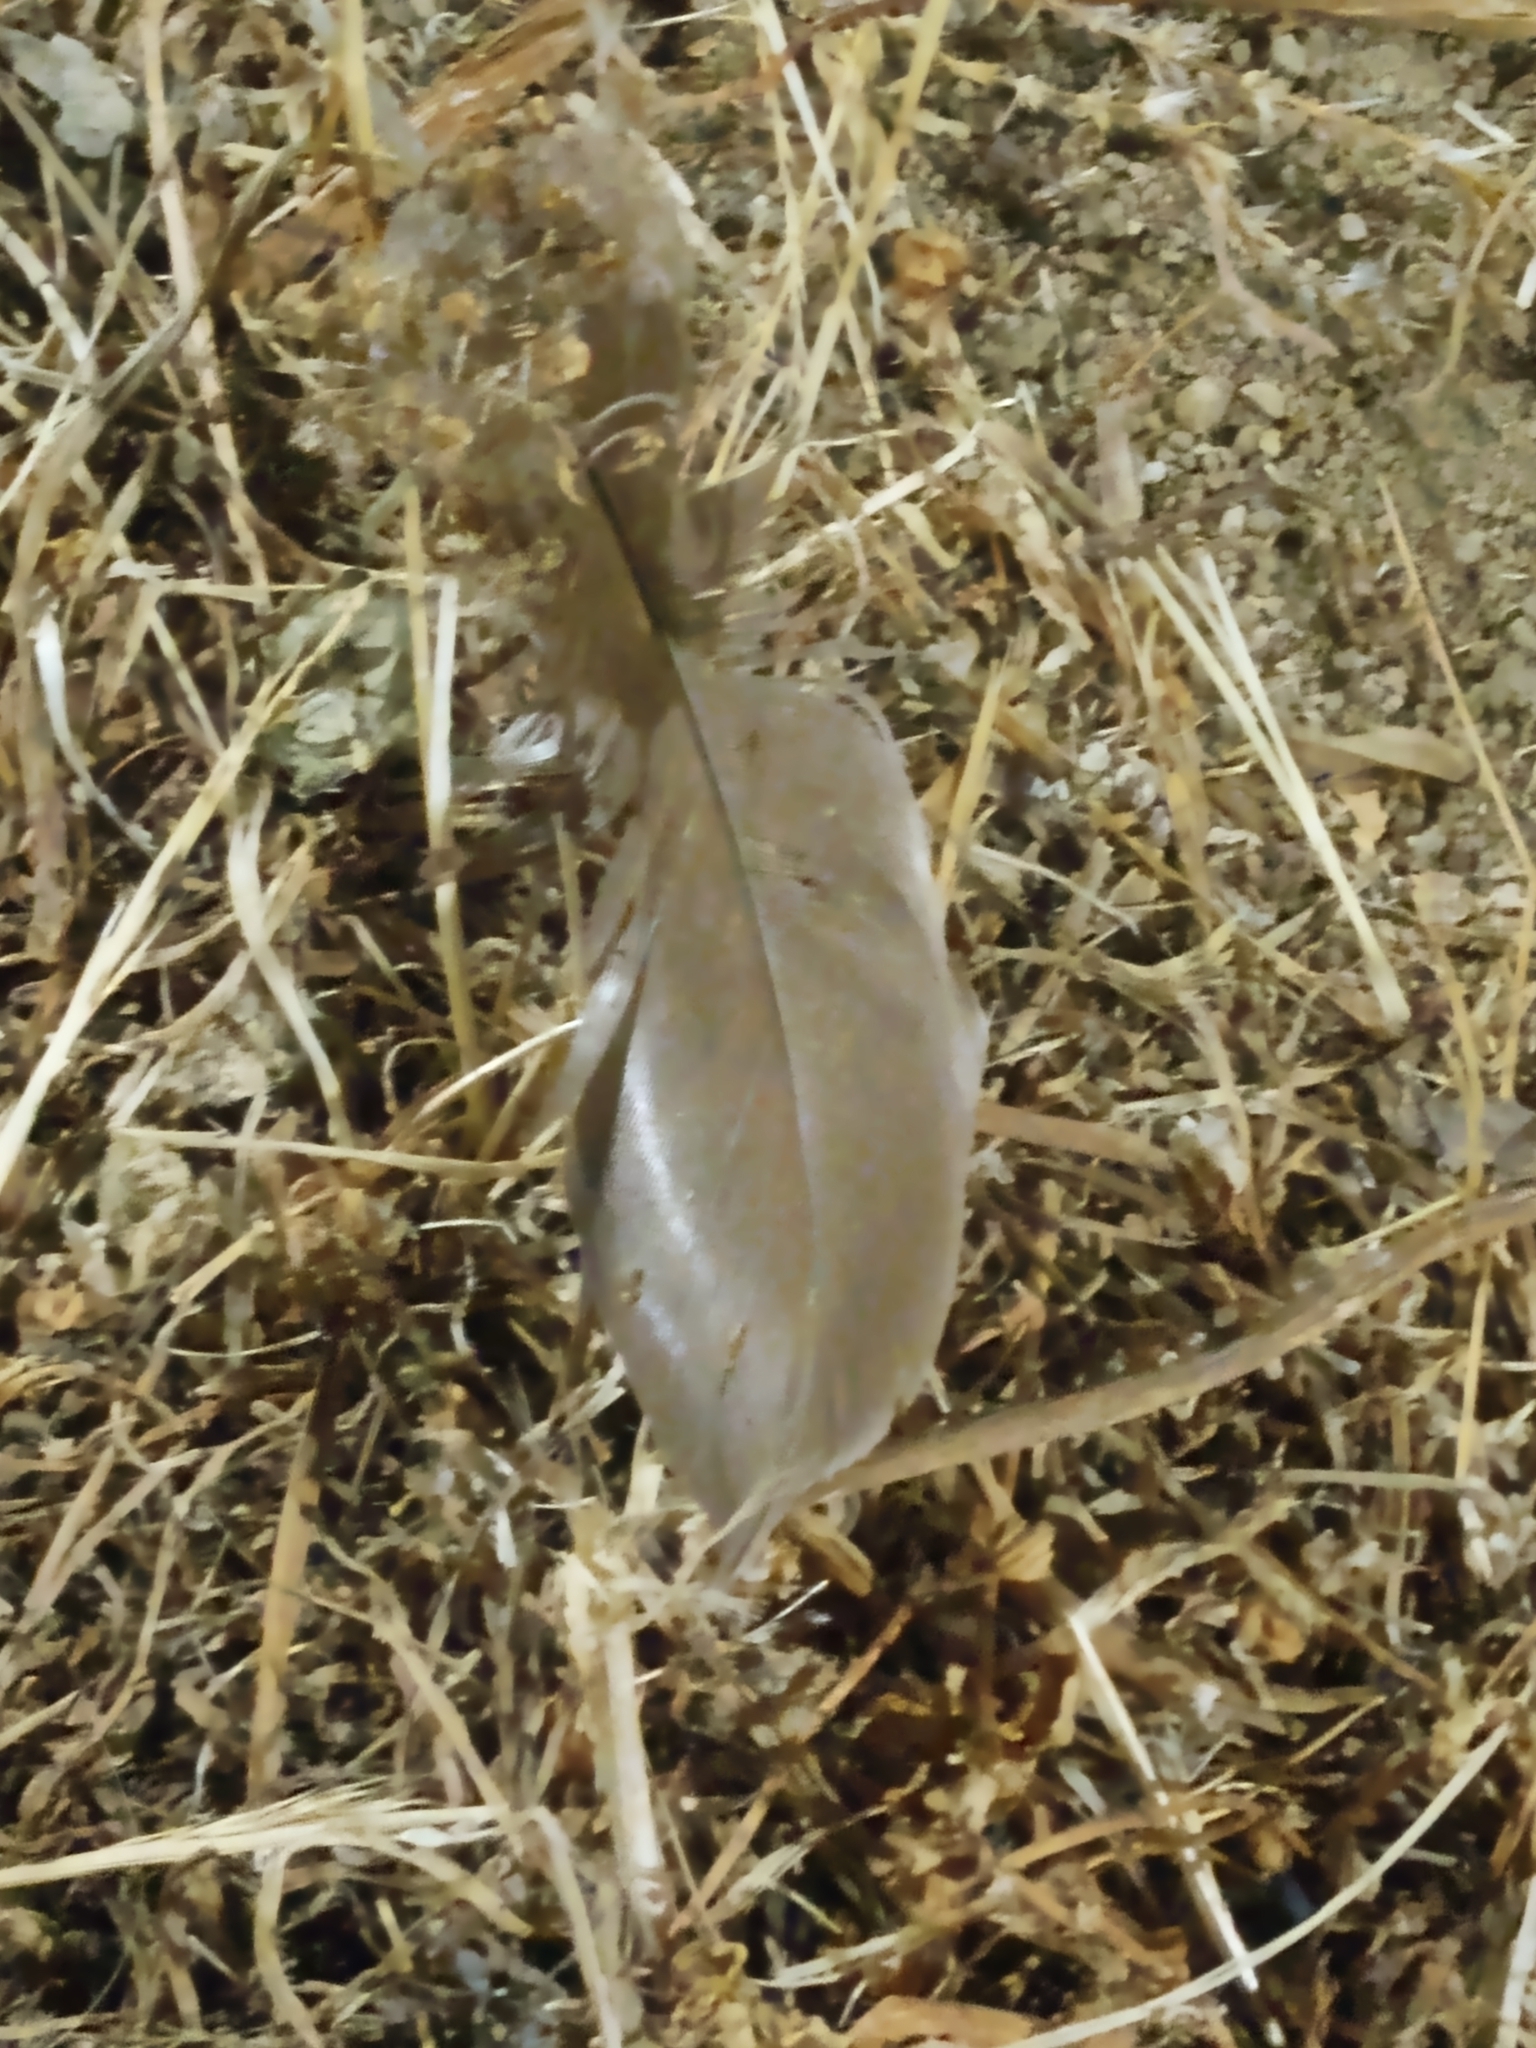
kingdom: Animalia
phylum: Chordata
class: Aves
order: Anseriformes
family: Anatidae
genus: Branta
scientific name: Branta canadensis
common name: Canada goose
